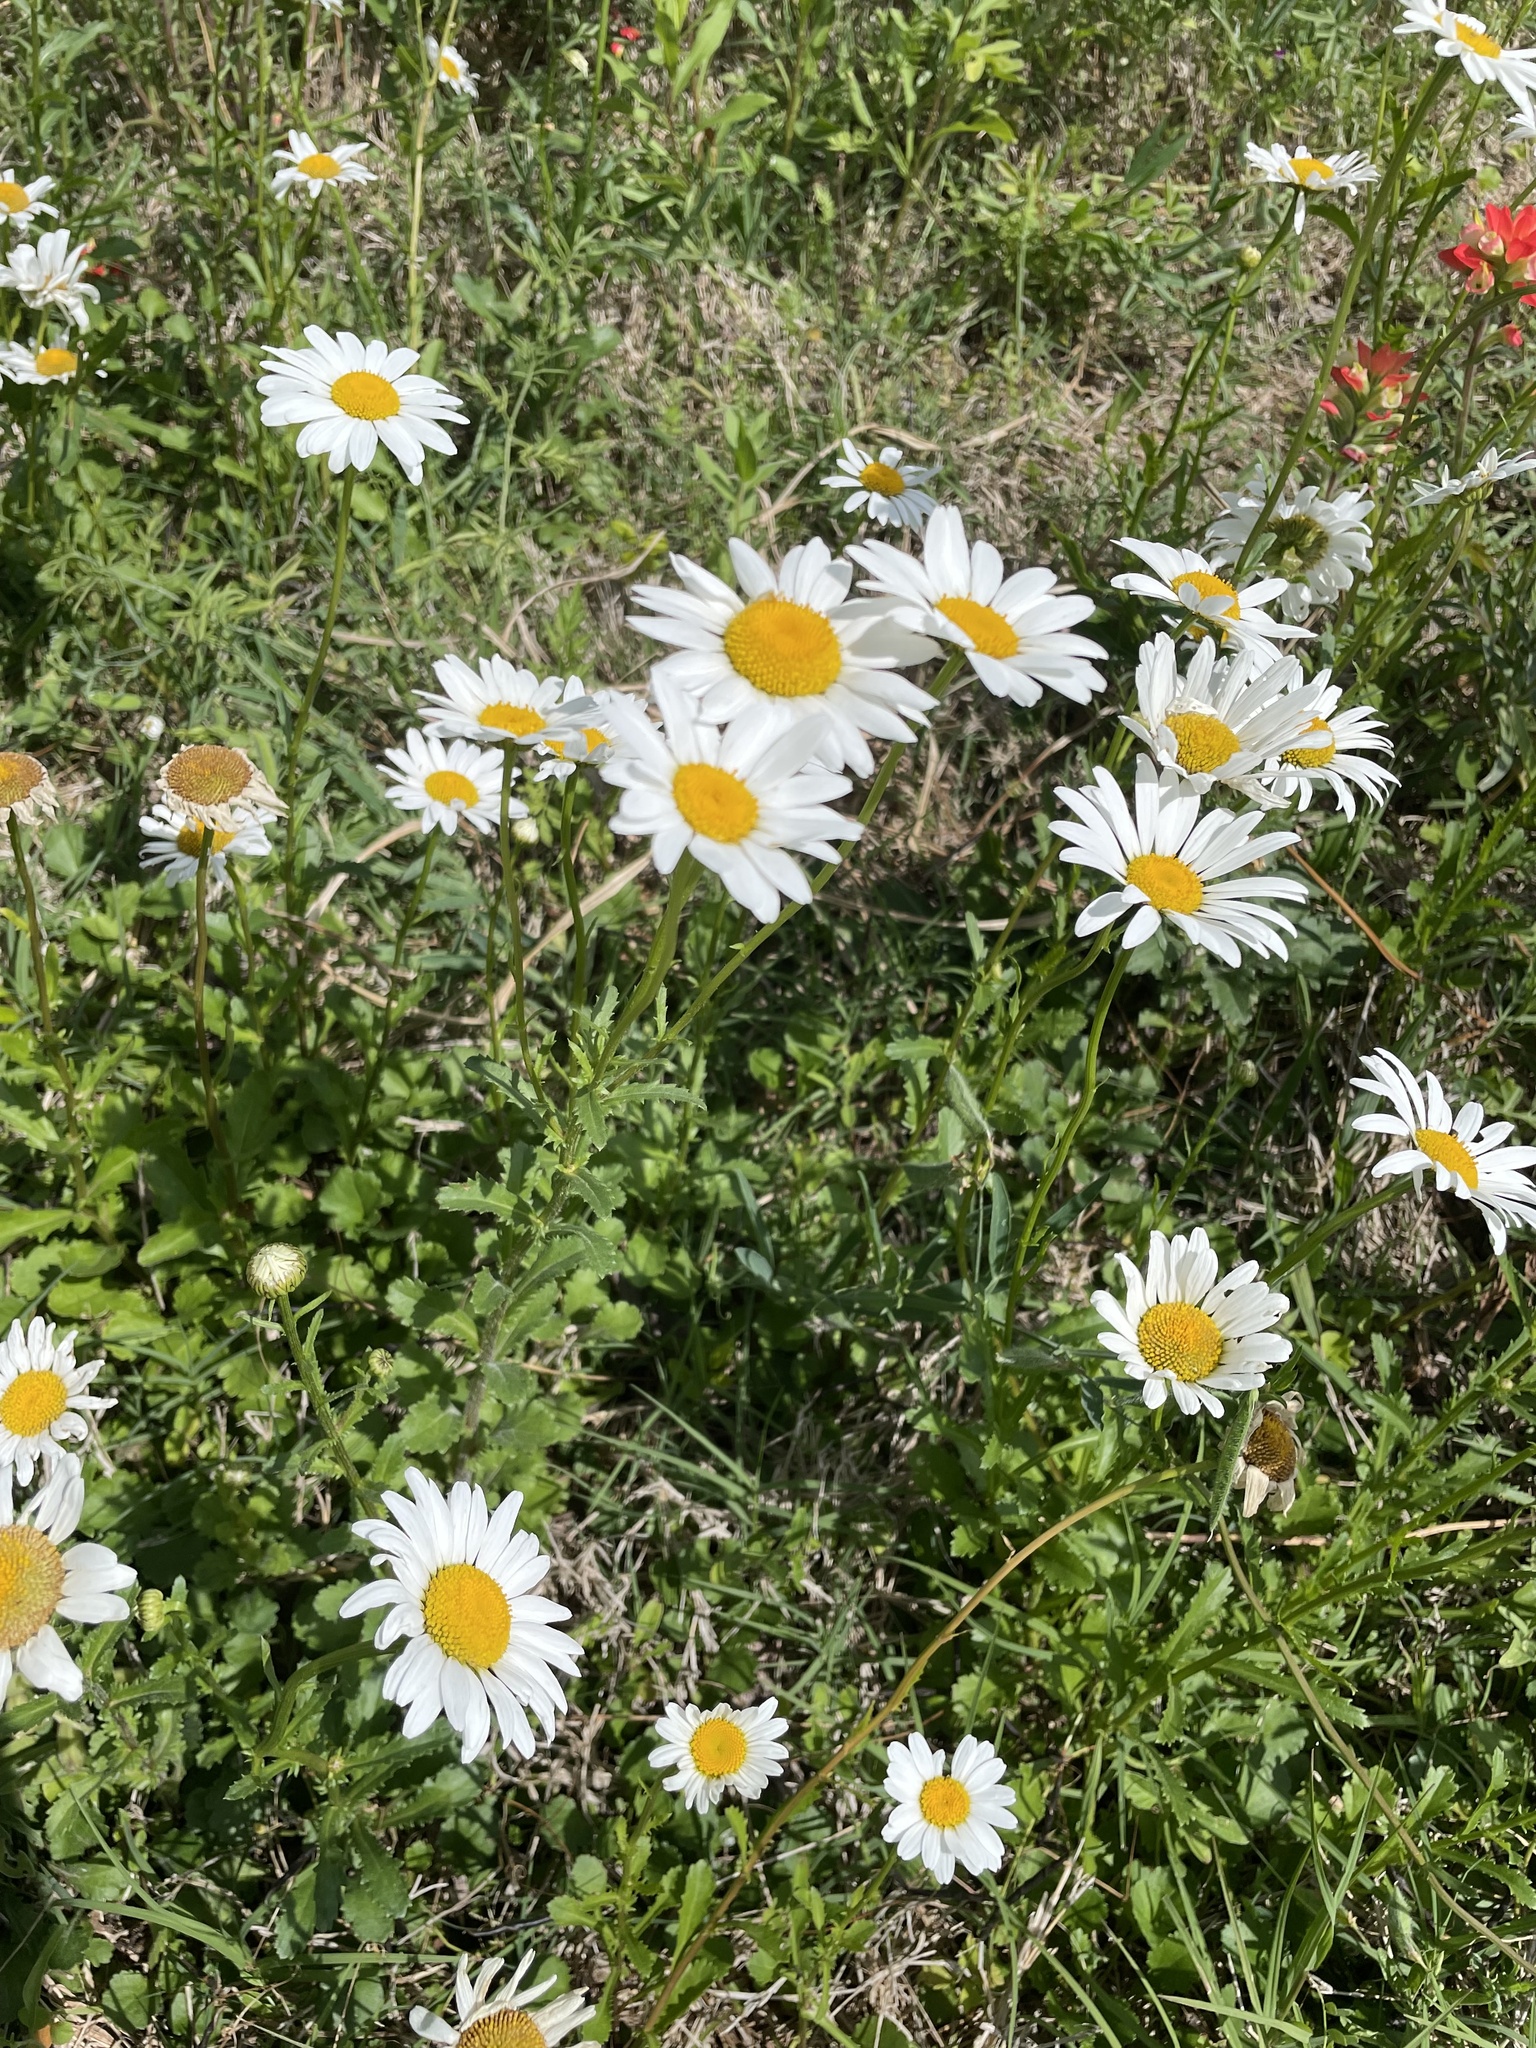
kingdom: Plantae
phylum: Tracheophyta
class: Magnoliopsida
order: Asterales
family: Asteraceae
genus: Leucanthemum
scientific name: Leucanthemum vulgare
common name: Oxeye daisy
